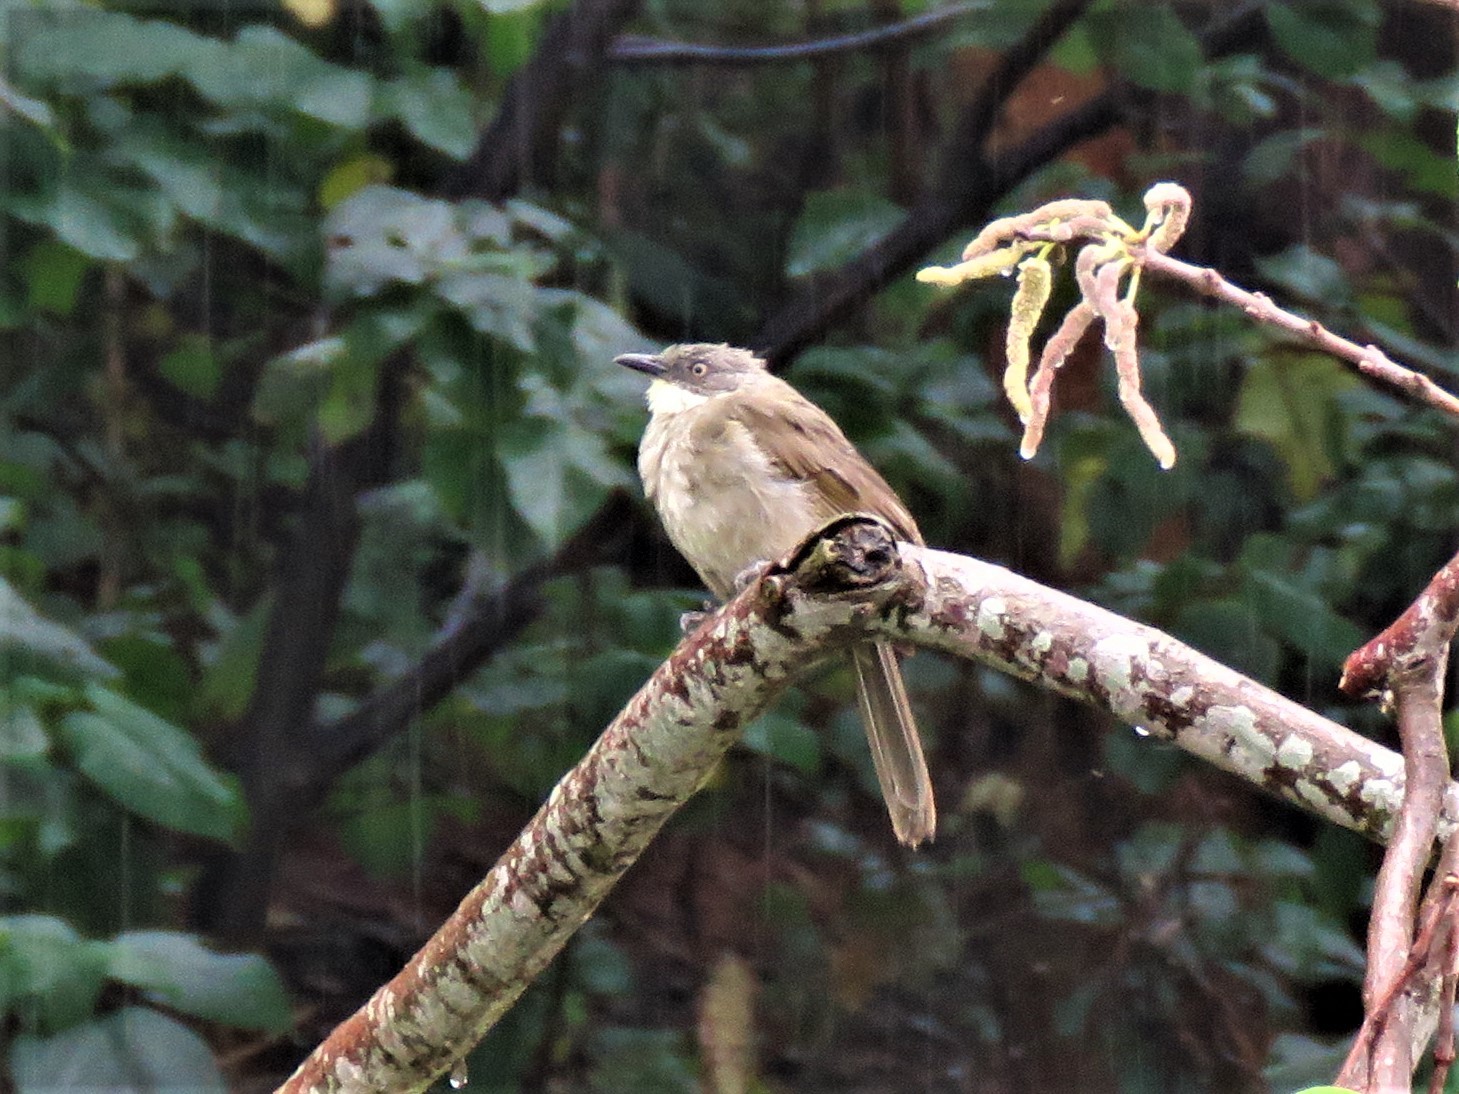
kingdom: Animalia
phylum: Chordata
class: Aves
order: Passeriformes
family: Pycnonotidae
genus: Atimastillas
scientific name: Atimastillas flavicollis
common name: Yellow-throated leaflove
